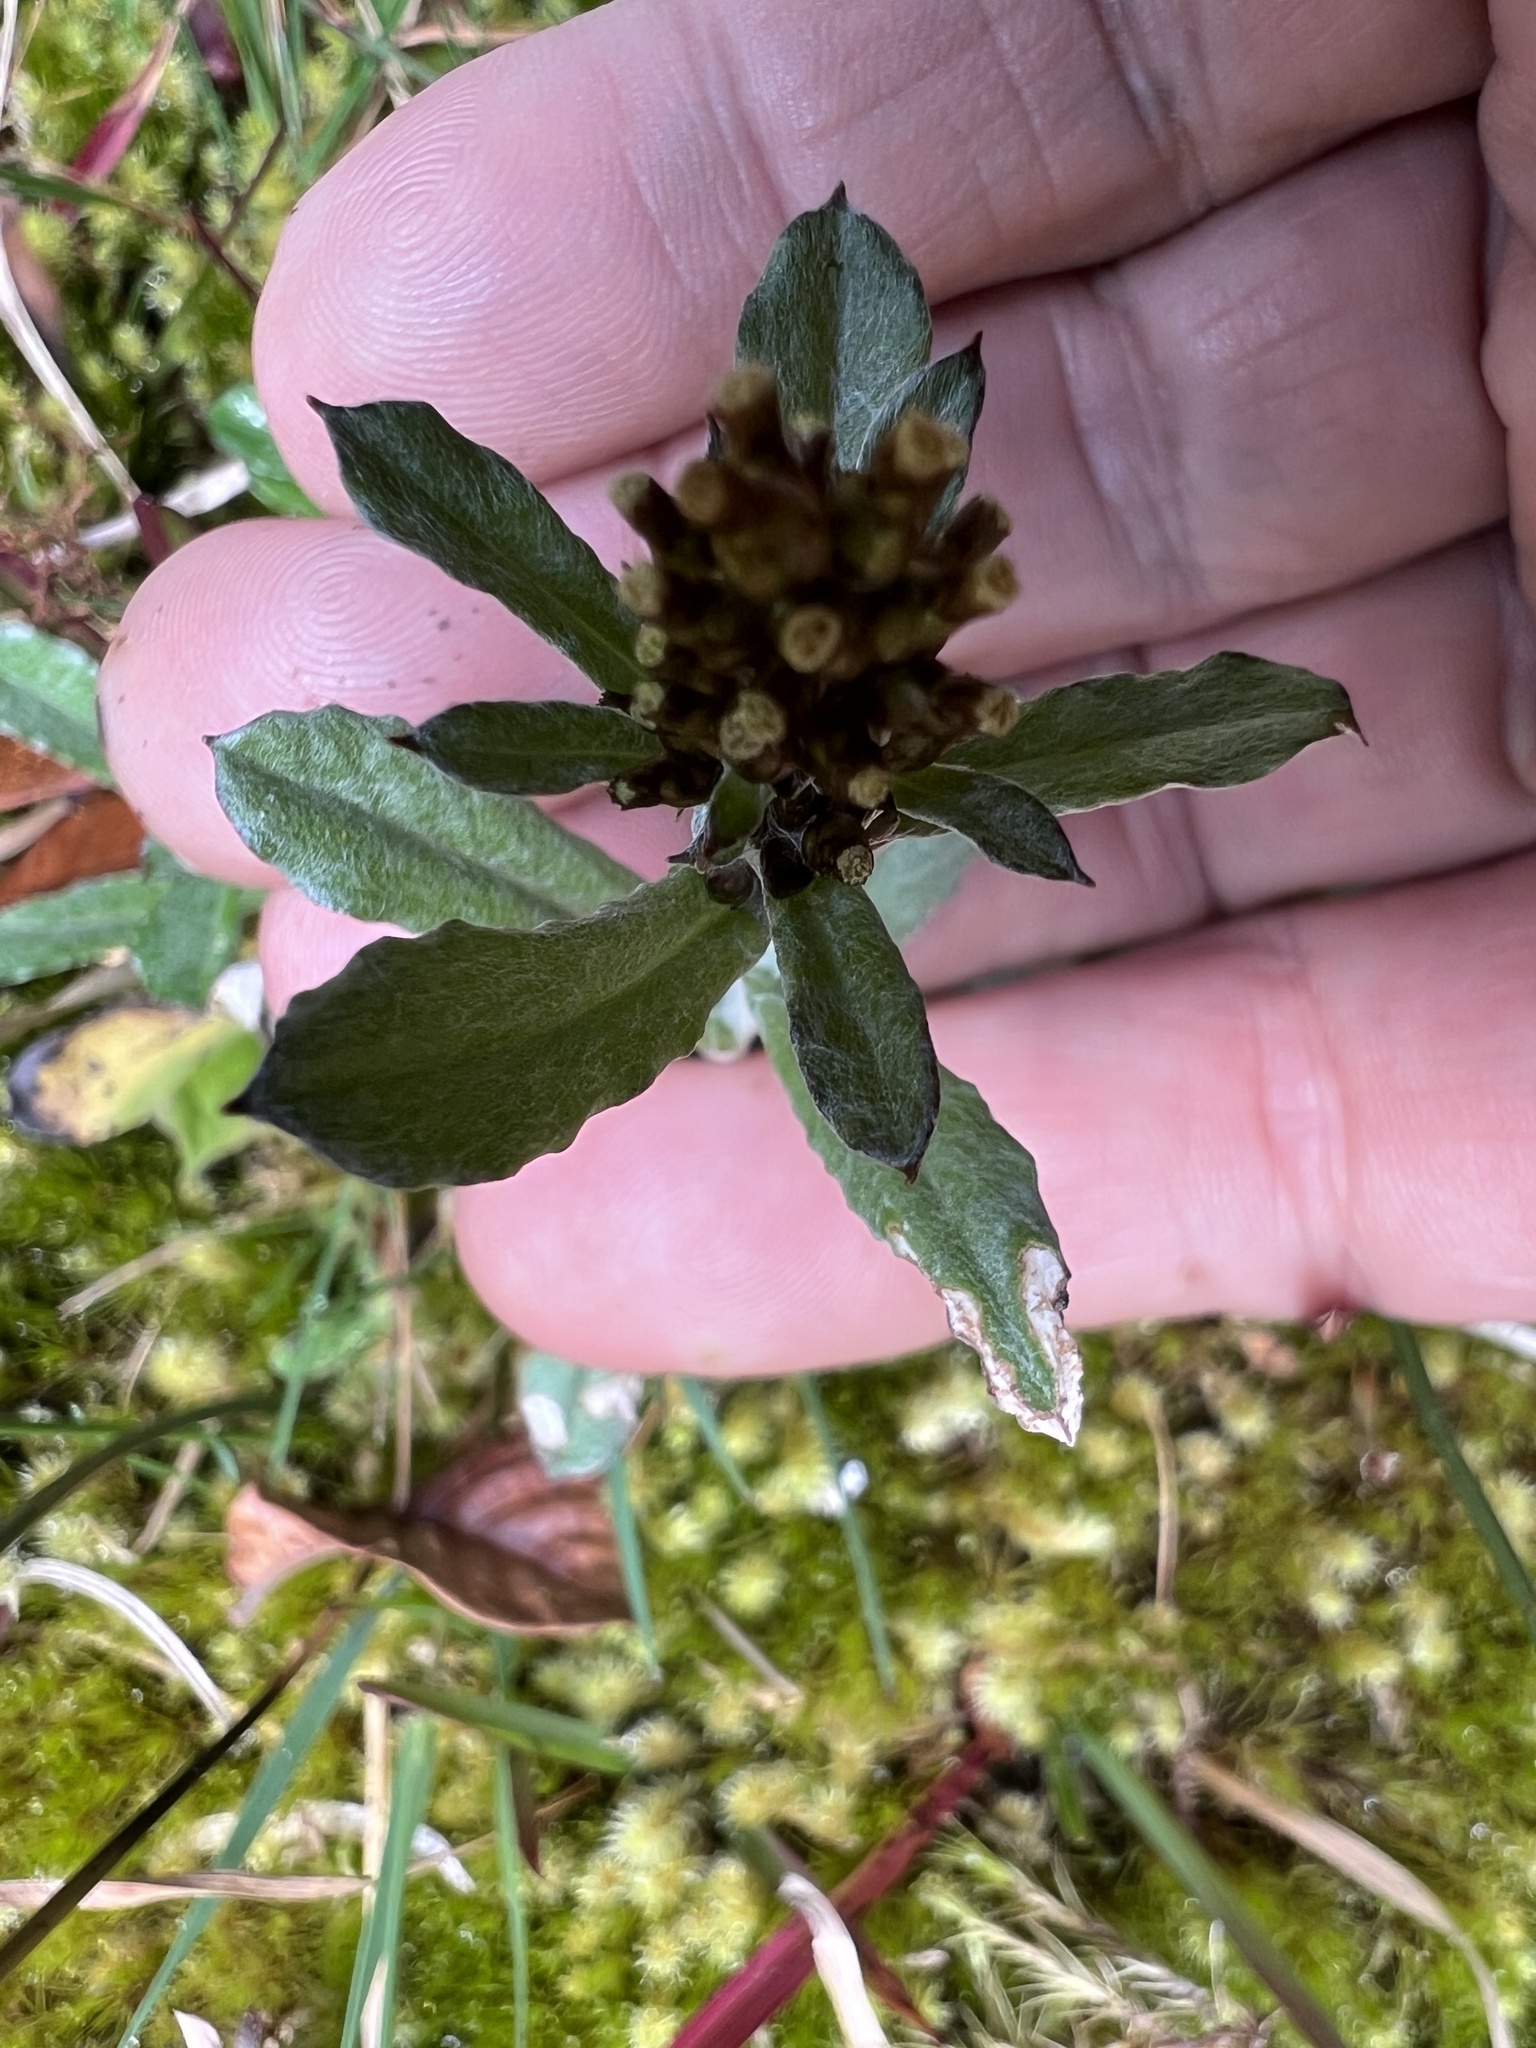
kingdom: Plantae
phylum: Tracheophyta
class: Magnoliopsida
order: Asterales
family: Asteraceae
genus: Gamochaeta
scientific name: Gamochaeta americana
